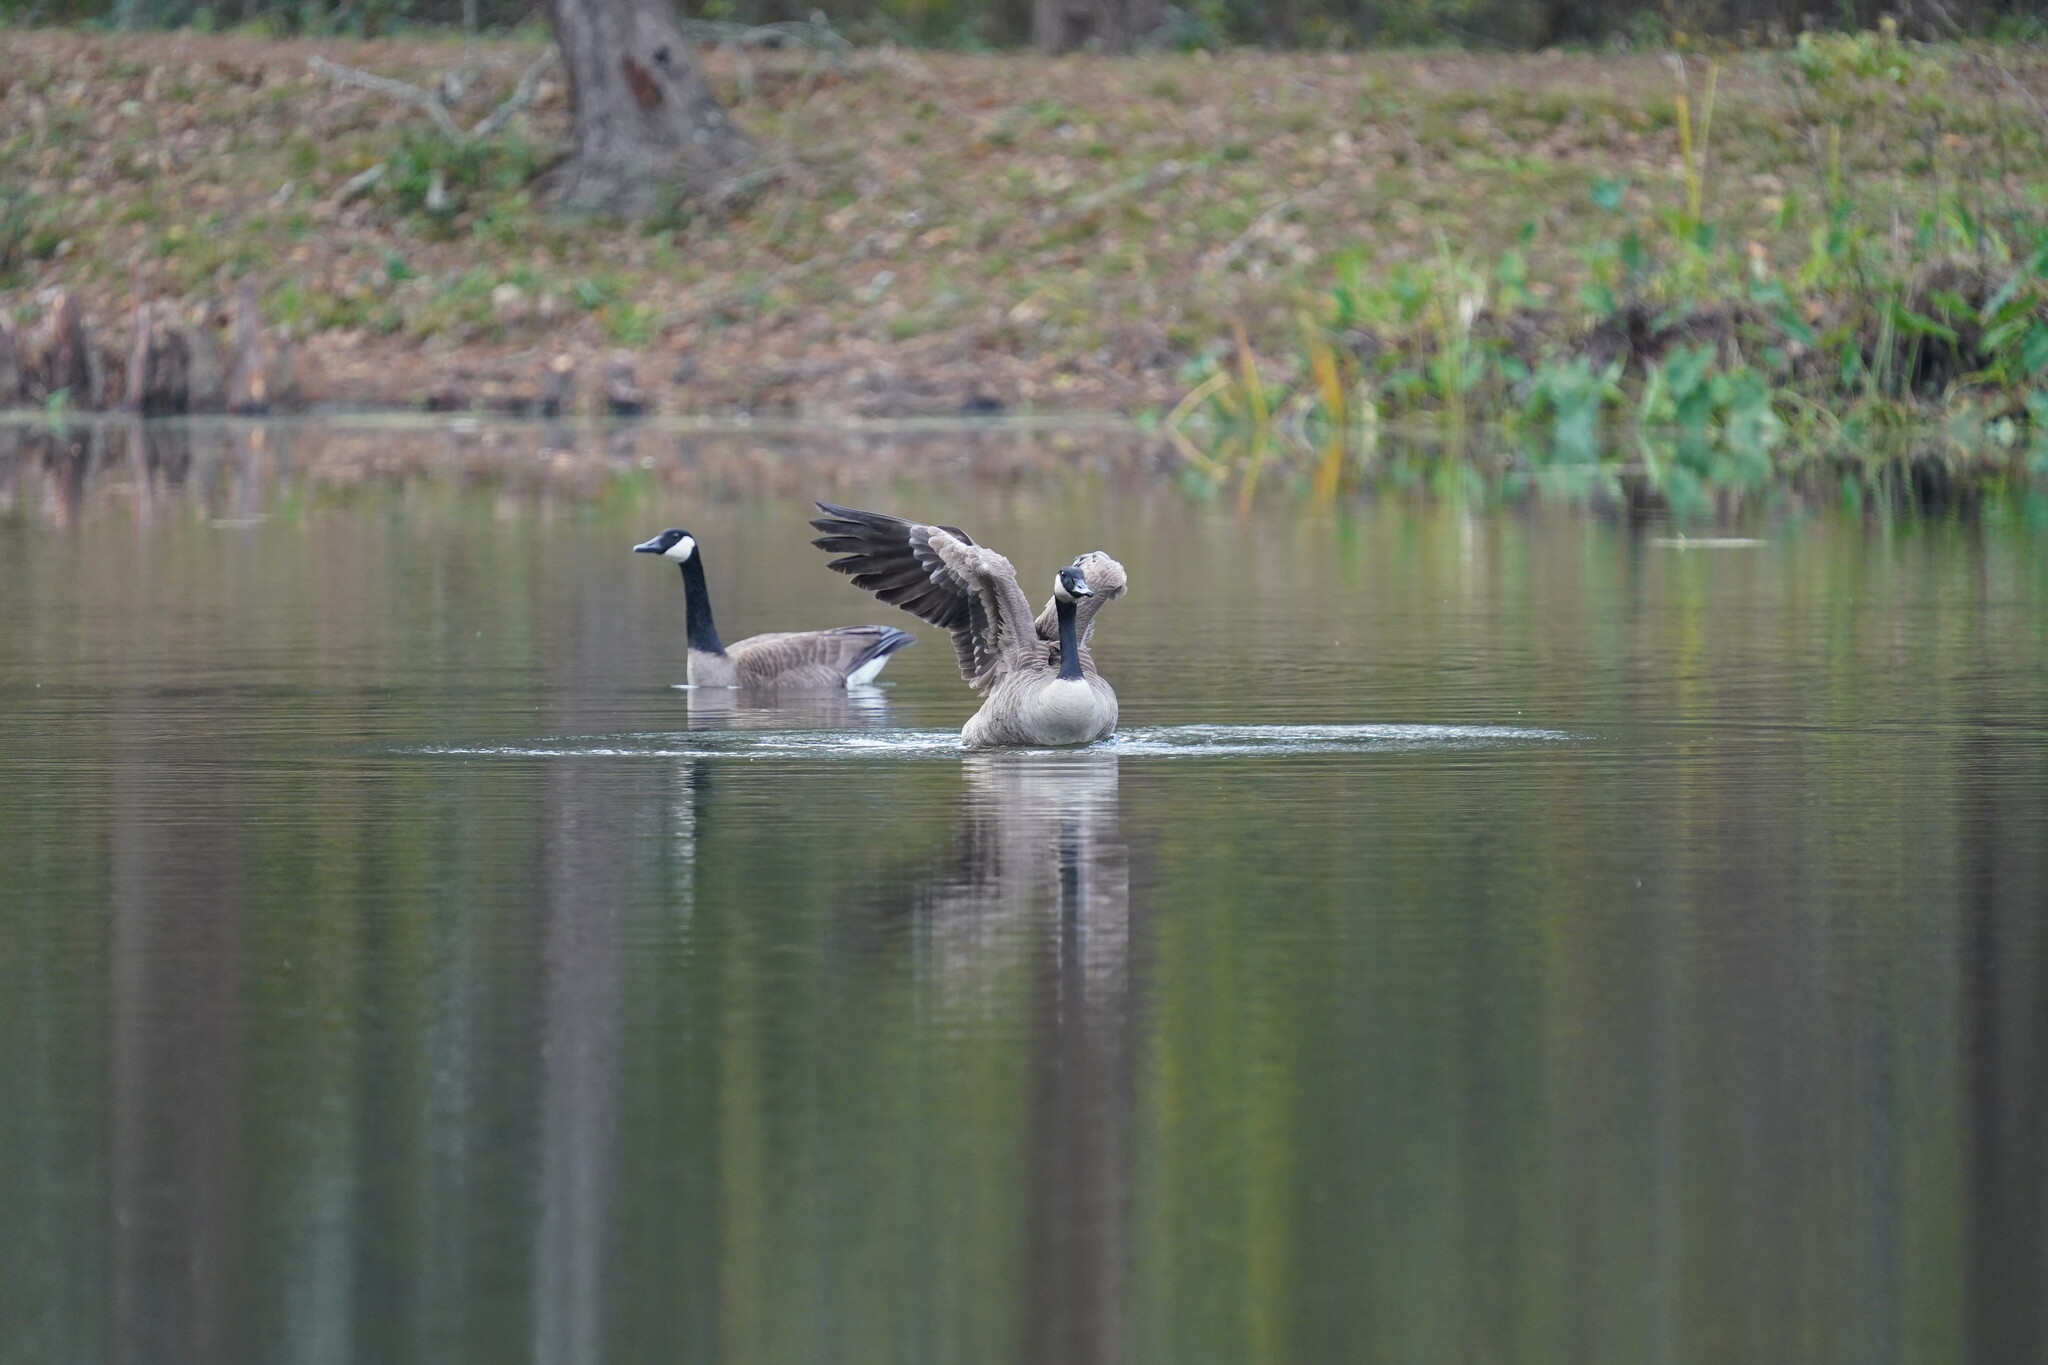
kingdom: Animalia
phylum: Chordata
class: Aves
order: Anseriformes
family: Anatidae
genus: Branta
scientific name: Branta canadensis
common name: Canada goose
